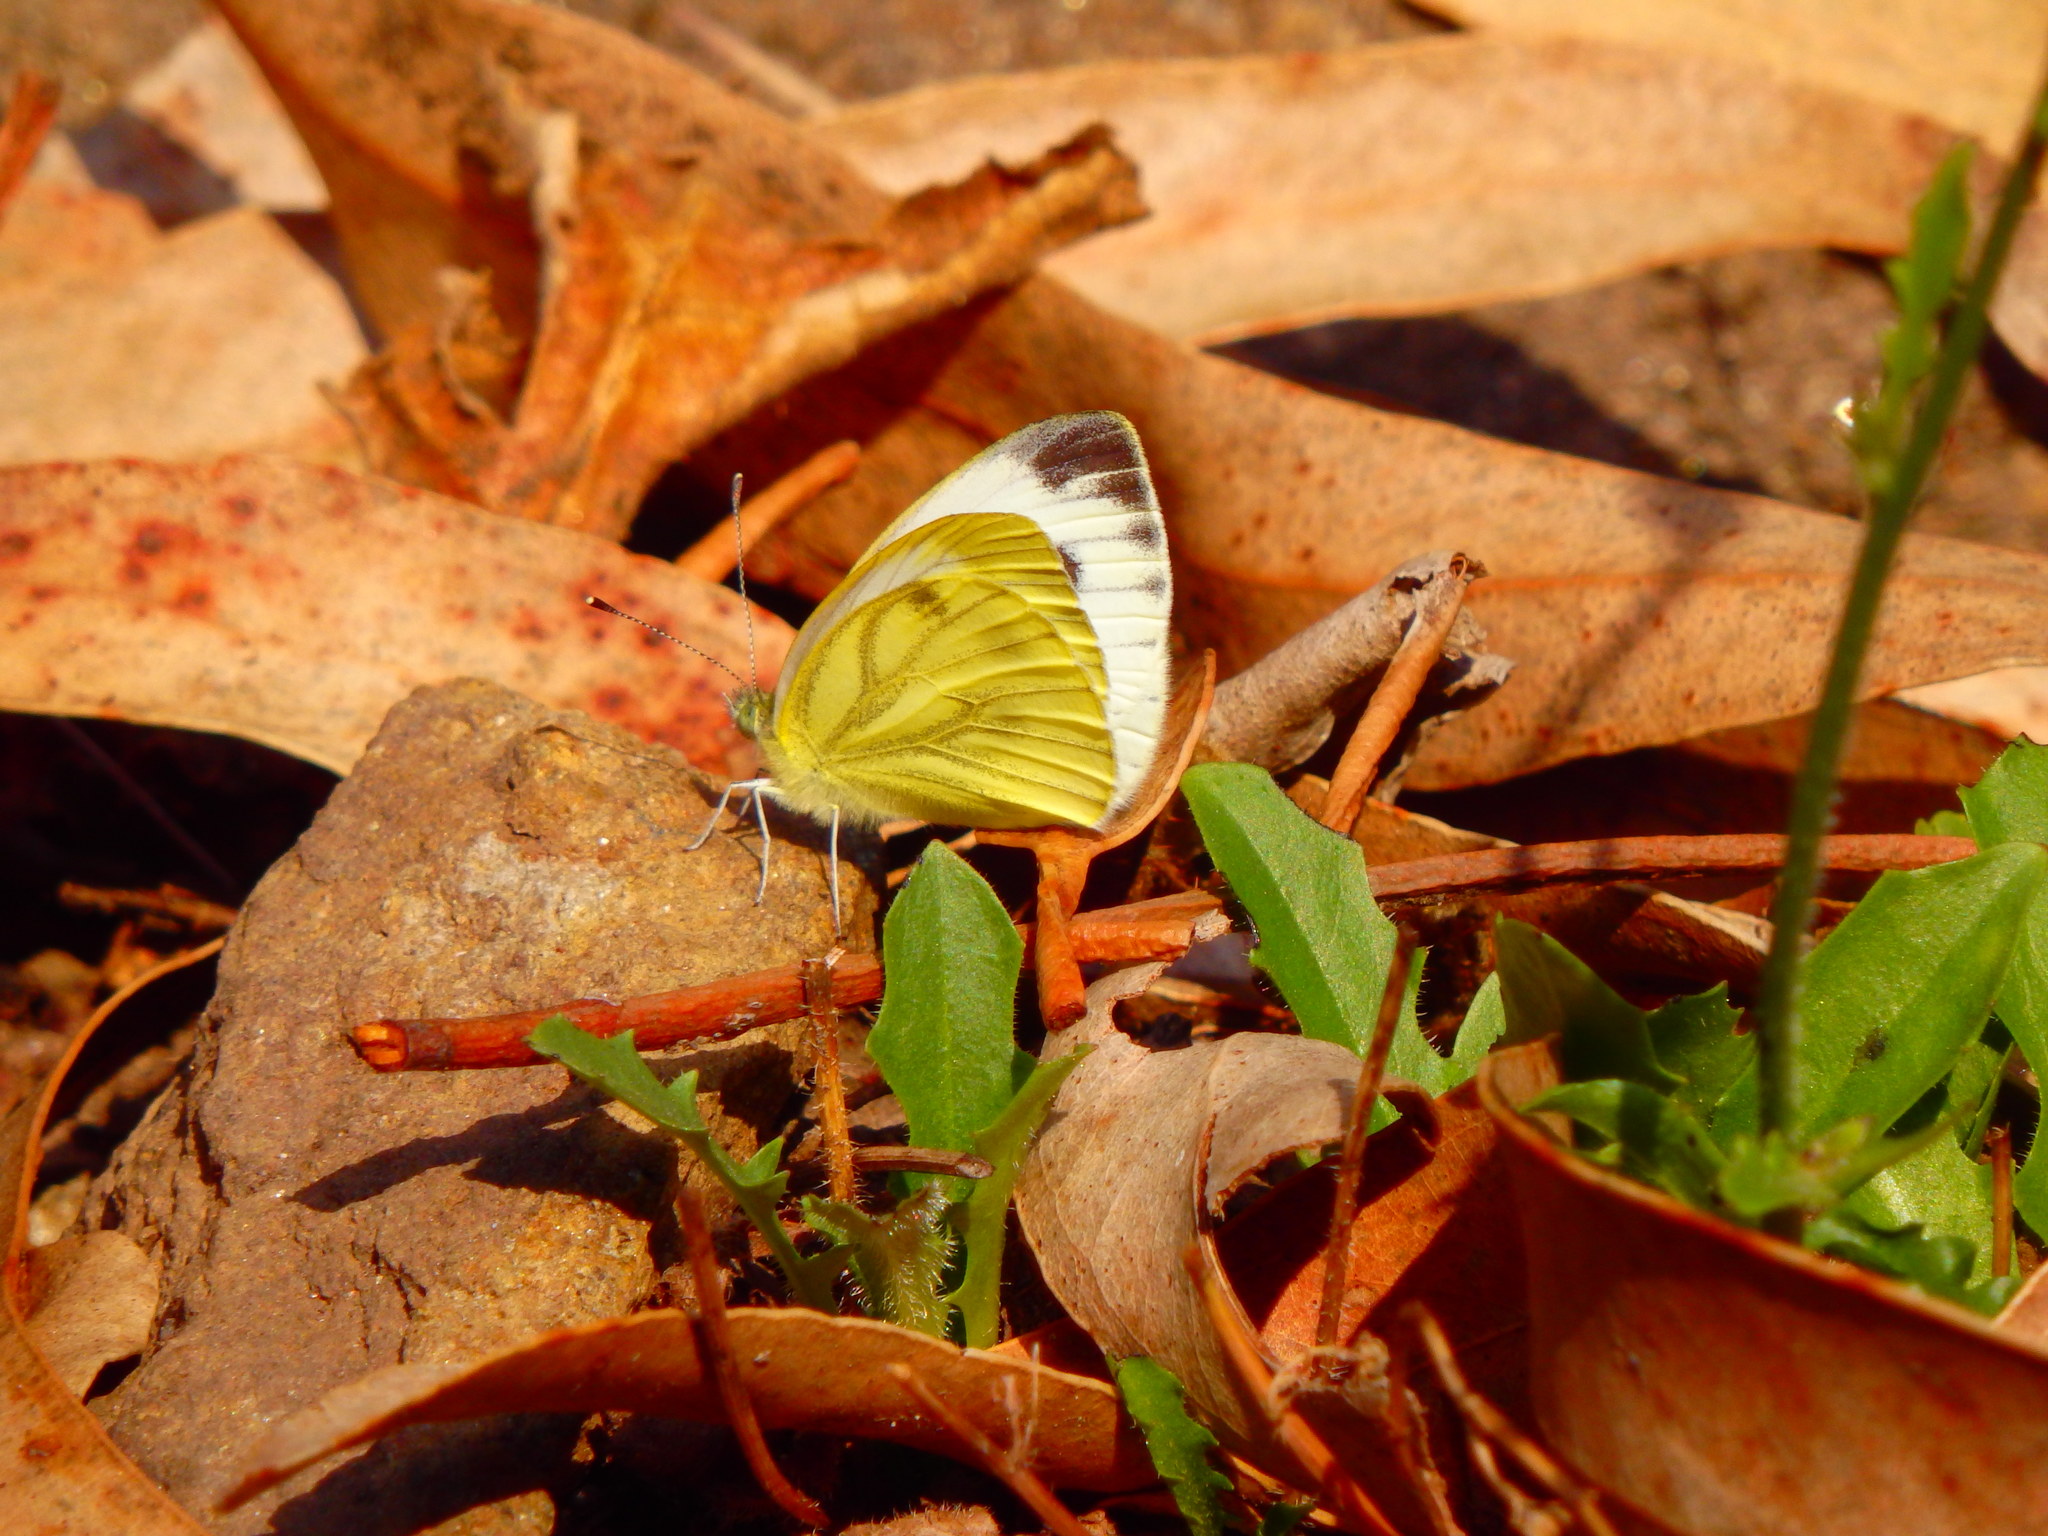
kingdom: Animalia
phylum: Arthropoda
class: Insecta
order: Lepidoptera
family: Pieridae
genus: Pieris
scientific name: Pieris napi
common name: Green-veined white
